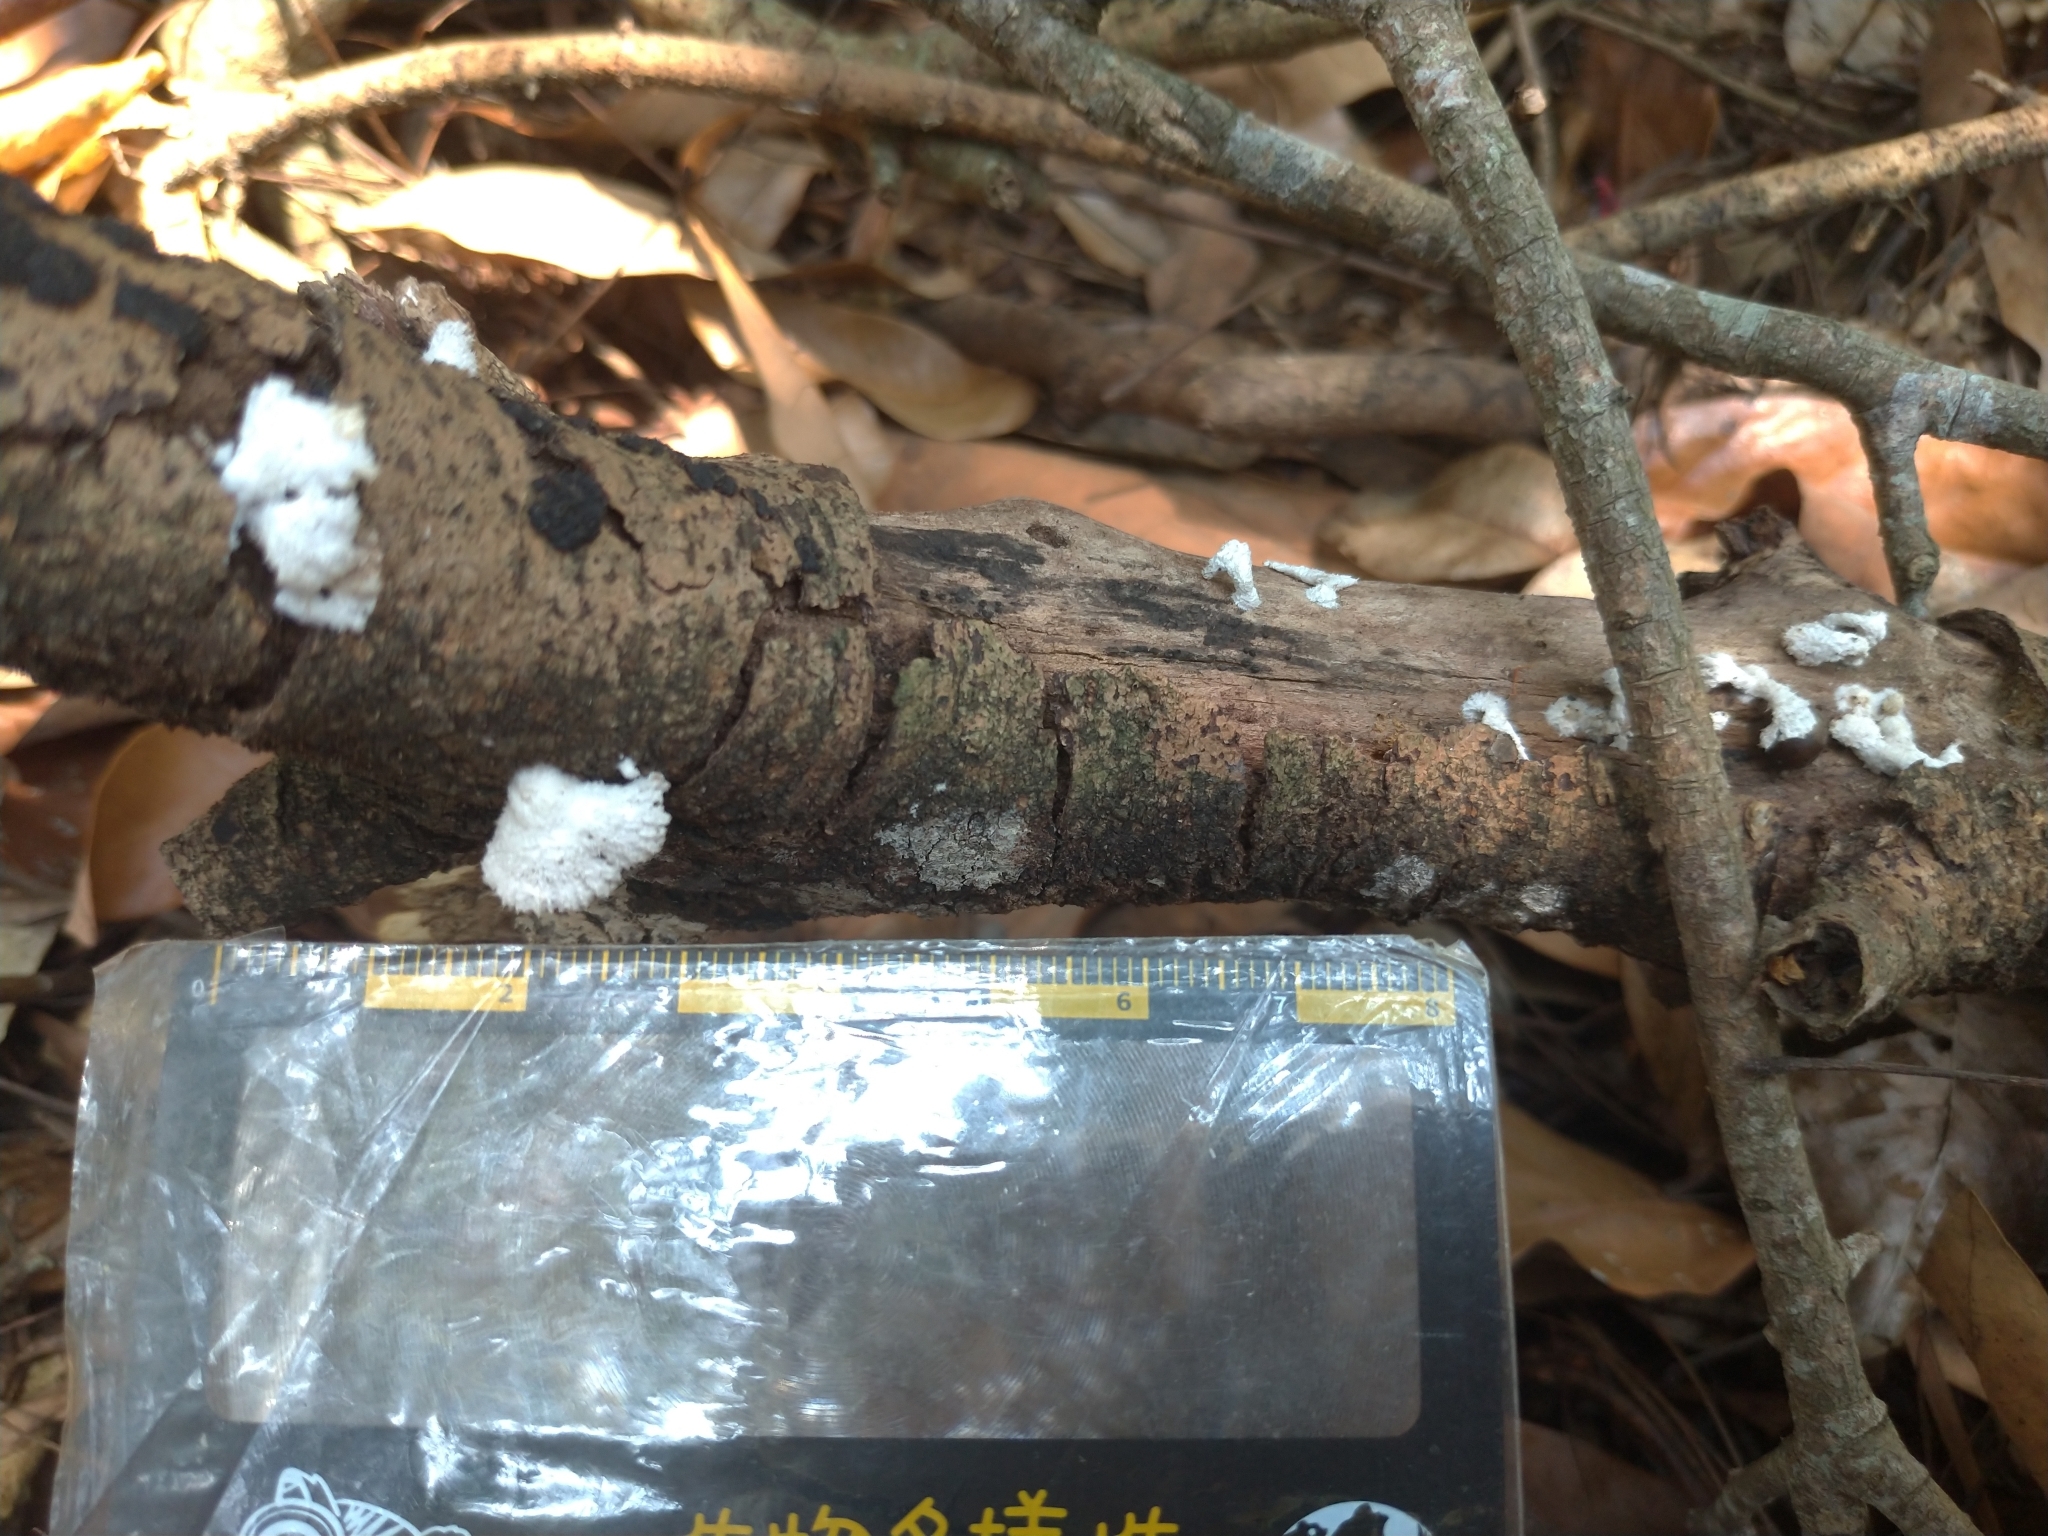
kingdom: Fungi
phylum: Basidiomycota
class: Agaricomycetes
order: Agaricales
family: Schizophyllaceae
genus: Schizophyllum
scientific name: Schizophyllum commune
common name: Common porecrust
